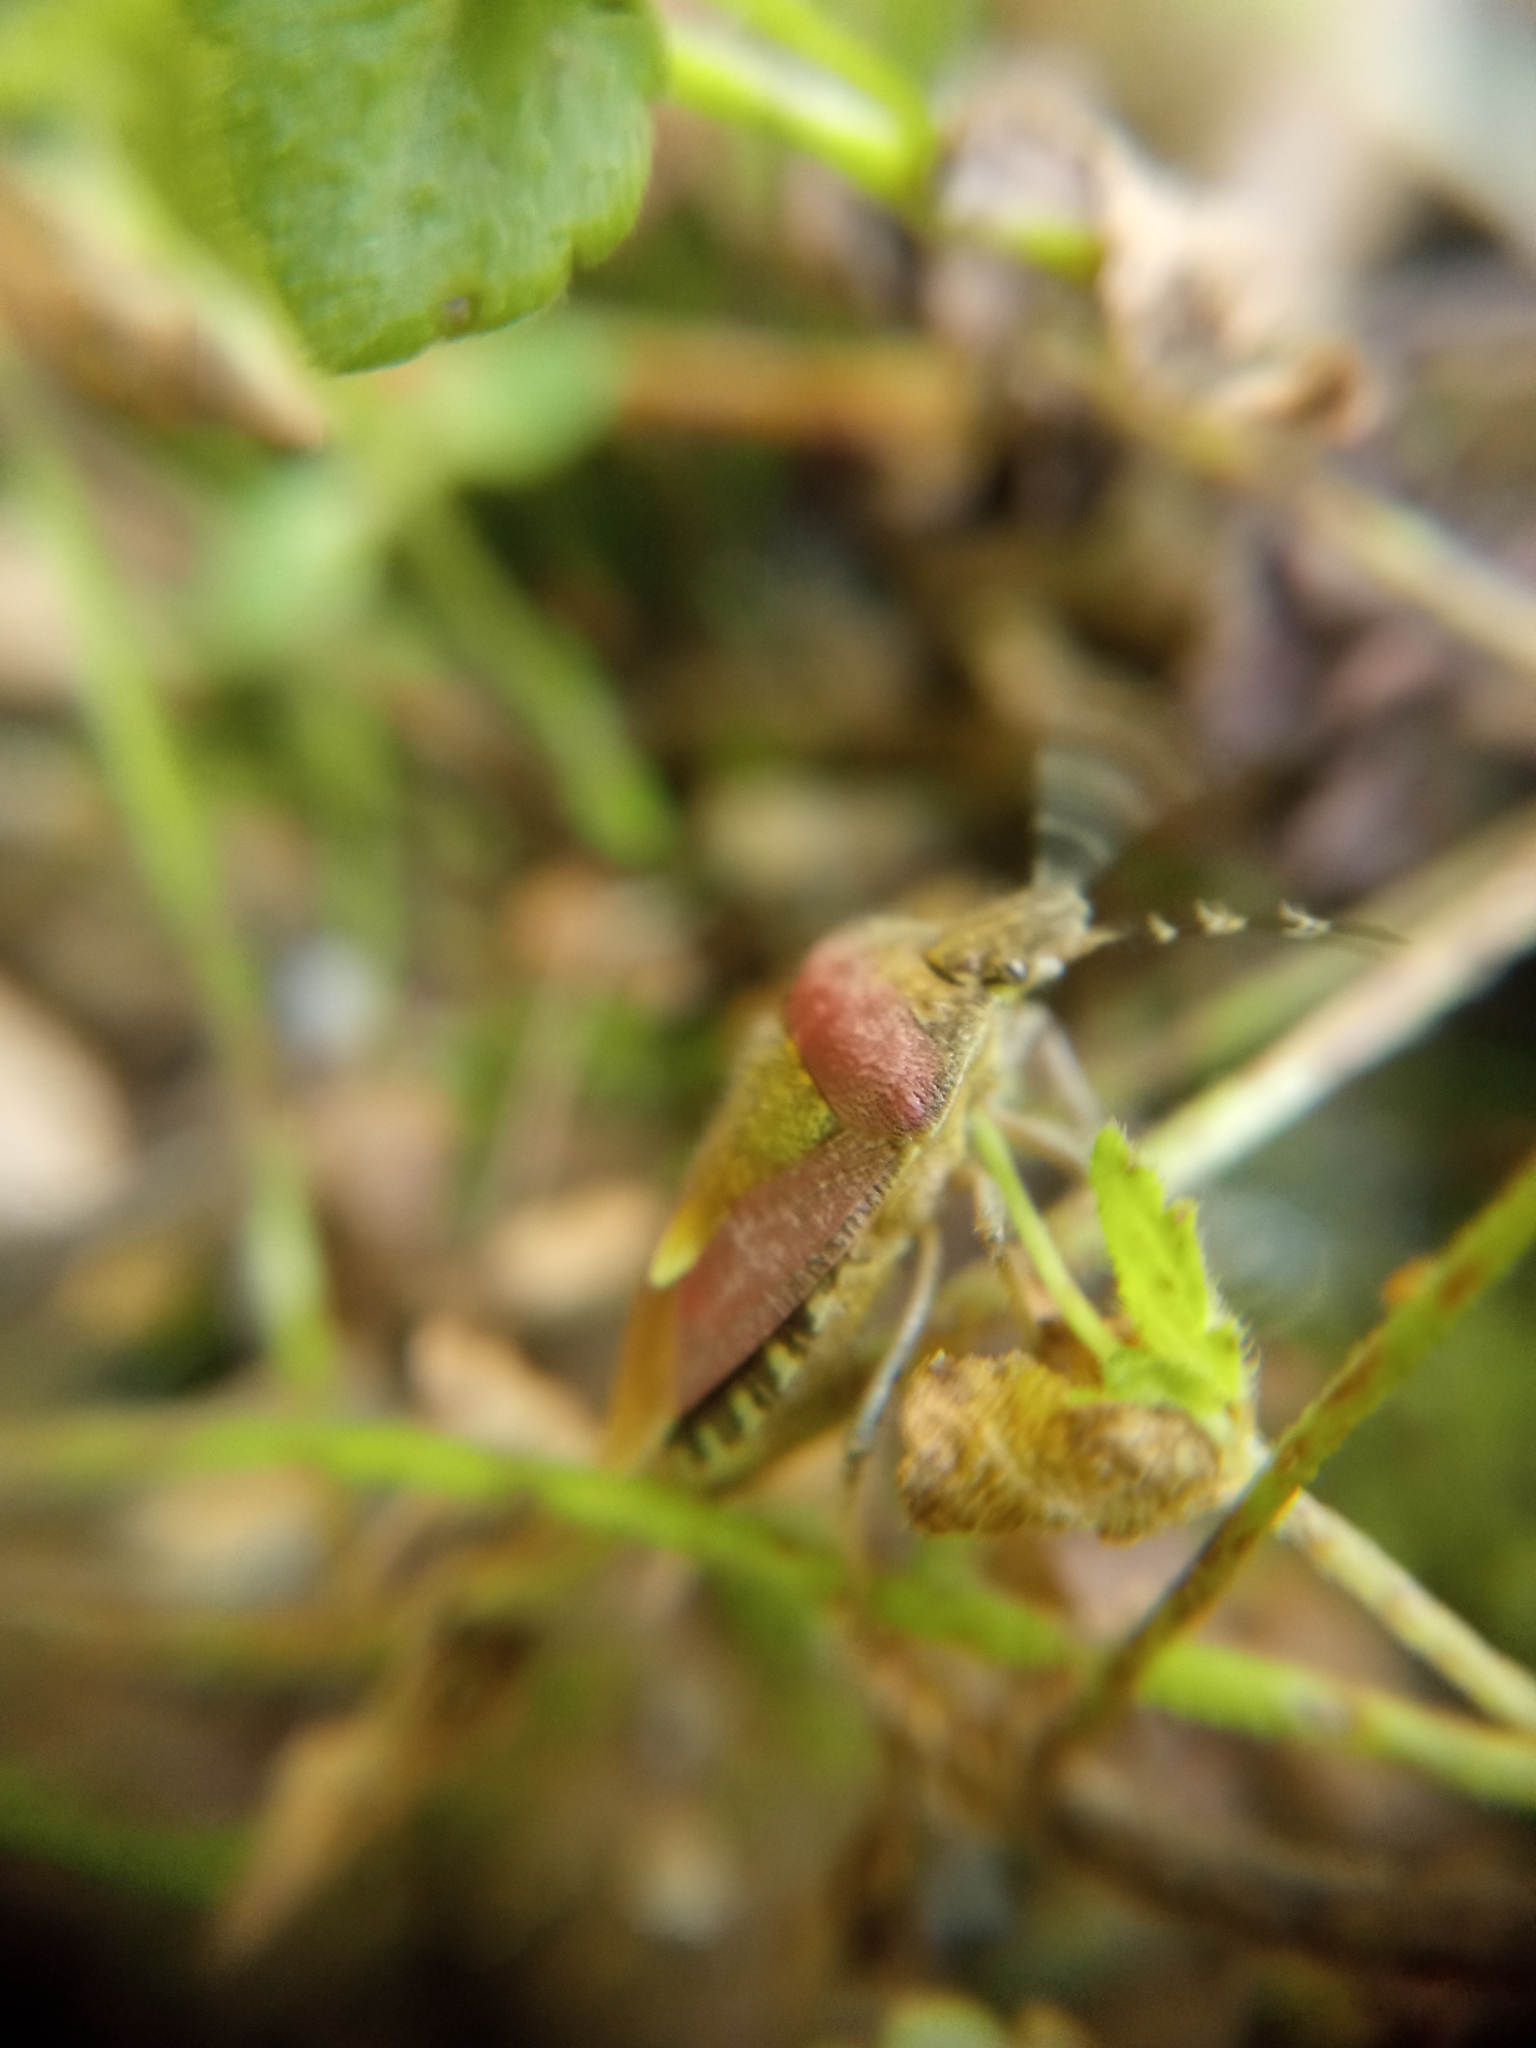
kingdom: Animalia
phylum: Arthropoda
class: Insecta
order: Hemiptera
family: Pentatomidae
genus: Dolycoris
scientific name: Dolycoris baccarum
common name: Sloe bug
